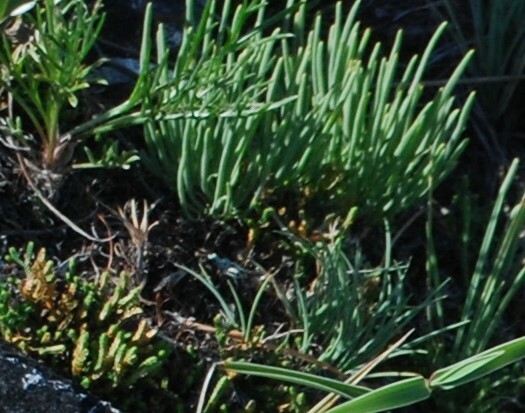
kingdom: Plantae
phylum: Tracheophyta
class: Magnoliopsida
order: Caryophyllales
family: Caryophyllaceae
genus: Gypsophila
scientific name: Gypsophila patrinii
